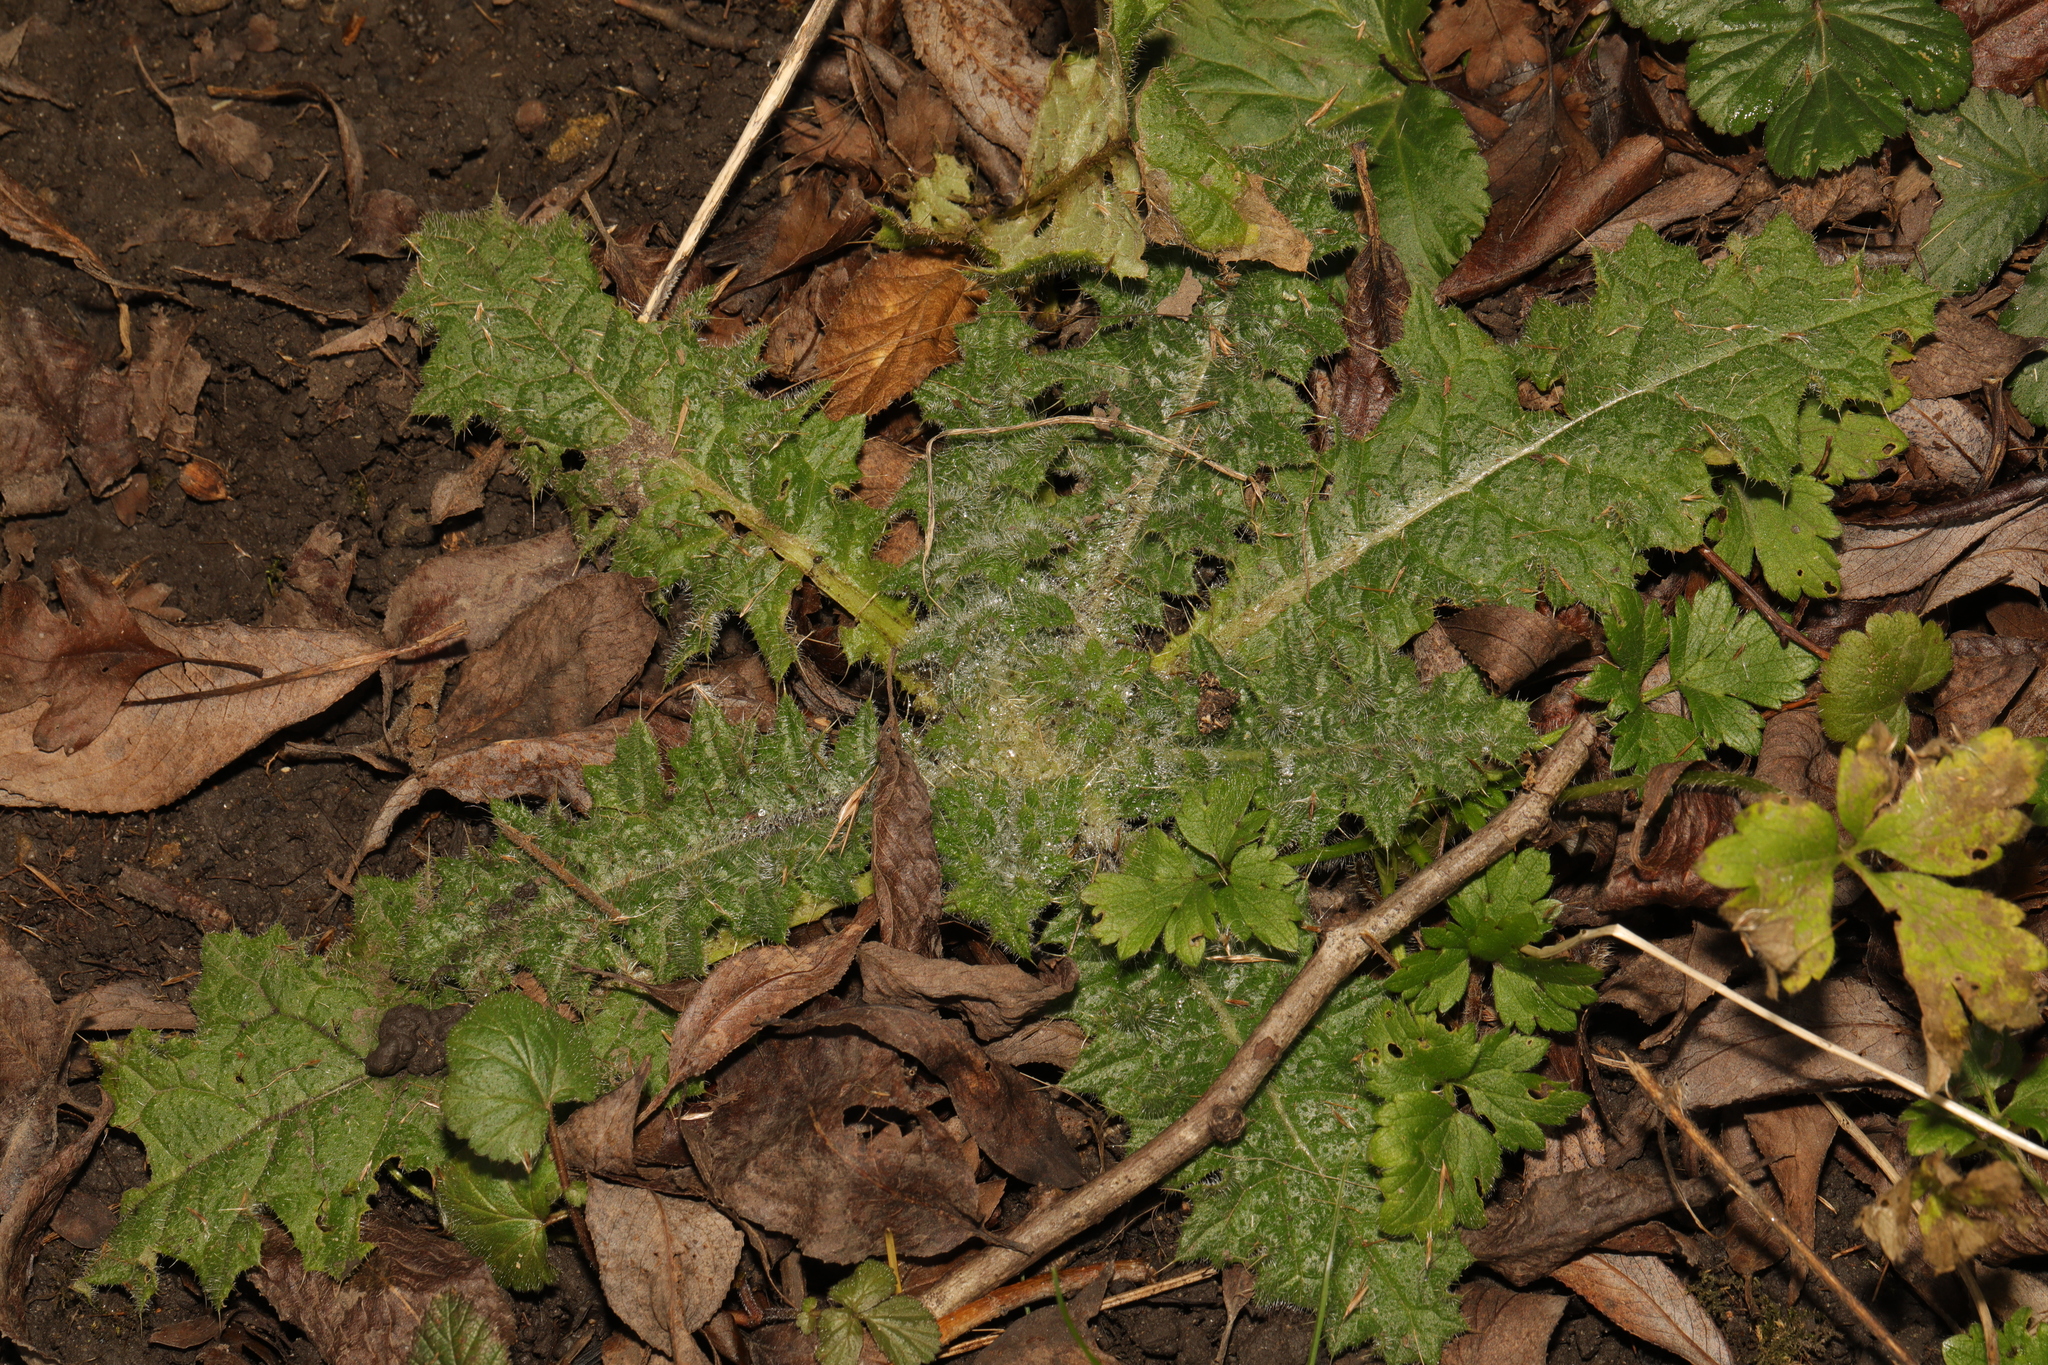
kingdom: Plantae
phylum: Tracheophyta
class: Magnoliopsida
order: Asterales
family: Asteraceae
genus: Cirsium
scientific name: Cirsium vulgare
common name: Bull thistle
